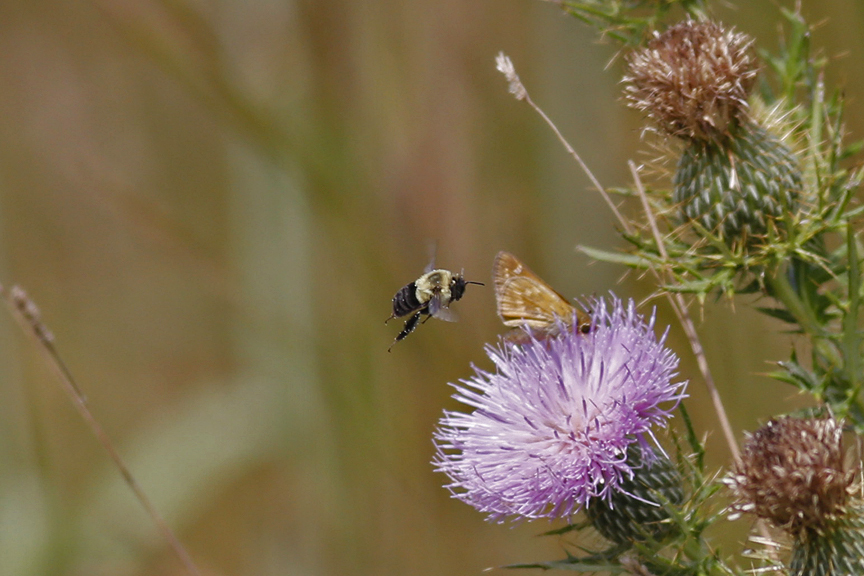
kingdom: Animalia
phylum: Arthropoda
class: Insecta
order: Hymenoptera
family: Apidae
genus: Bombus
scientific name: Bombus impatiens
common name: Common eastern bumble bee
